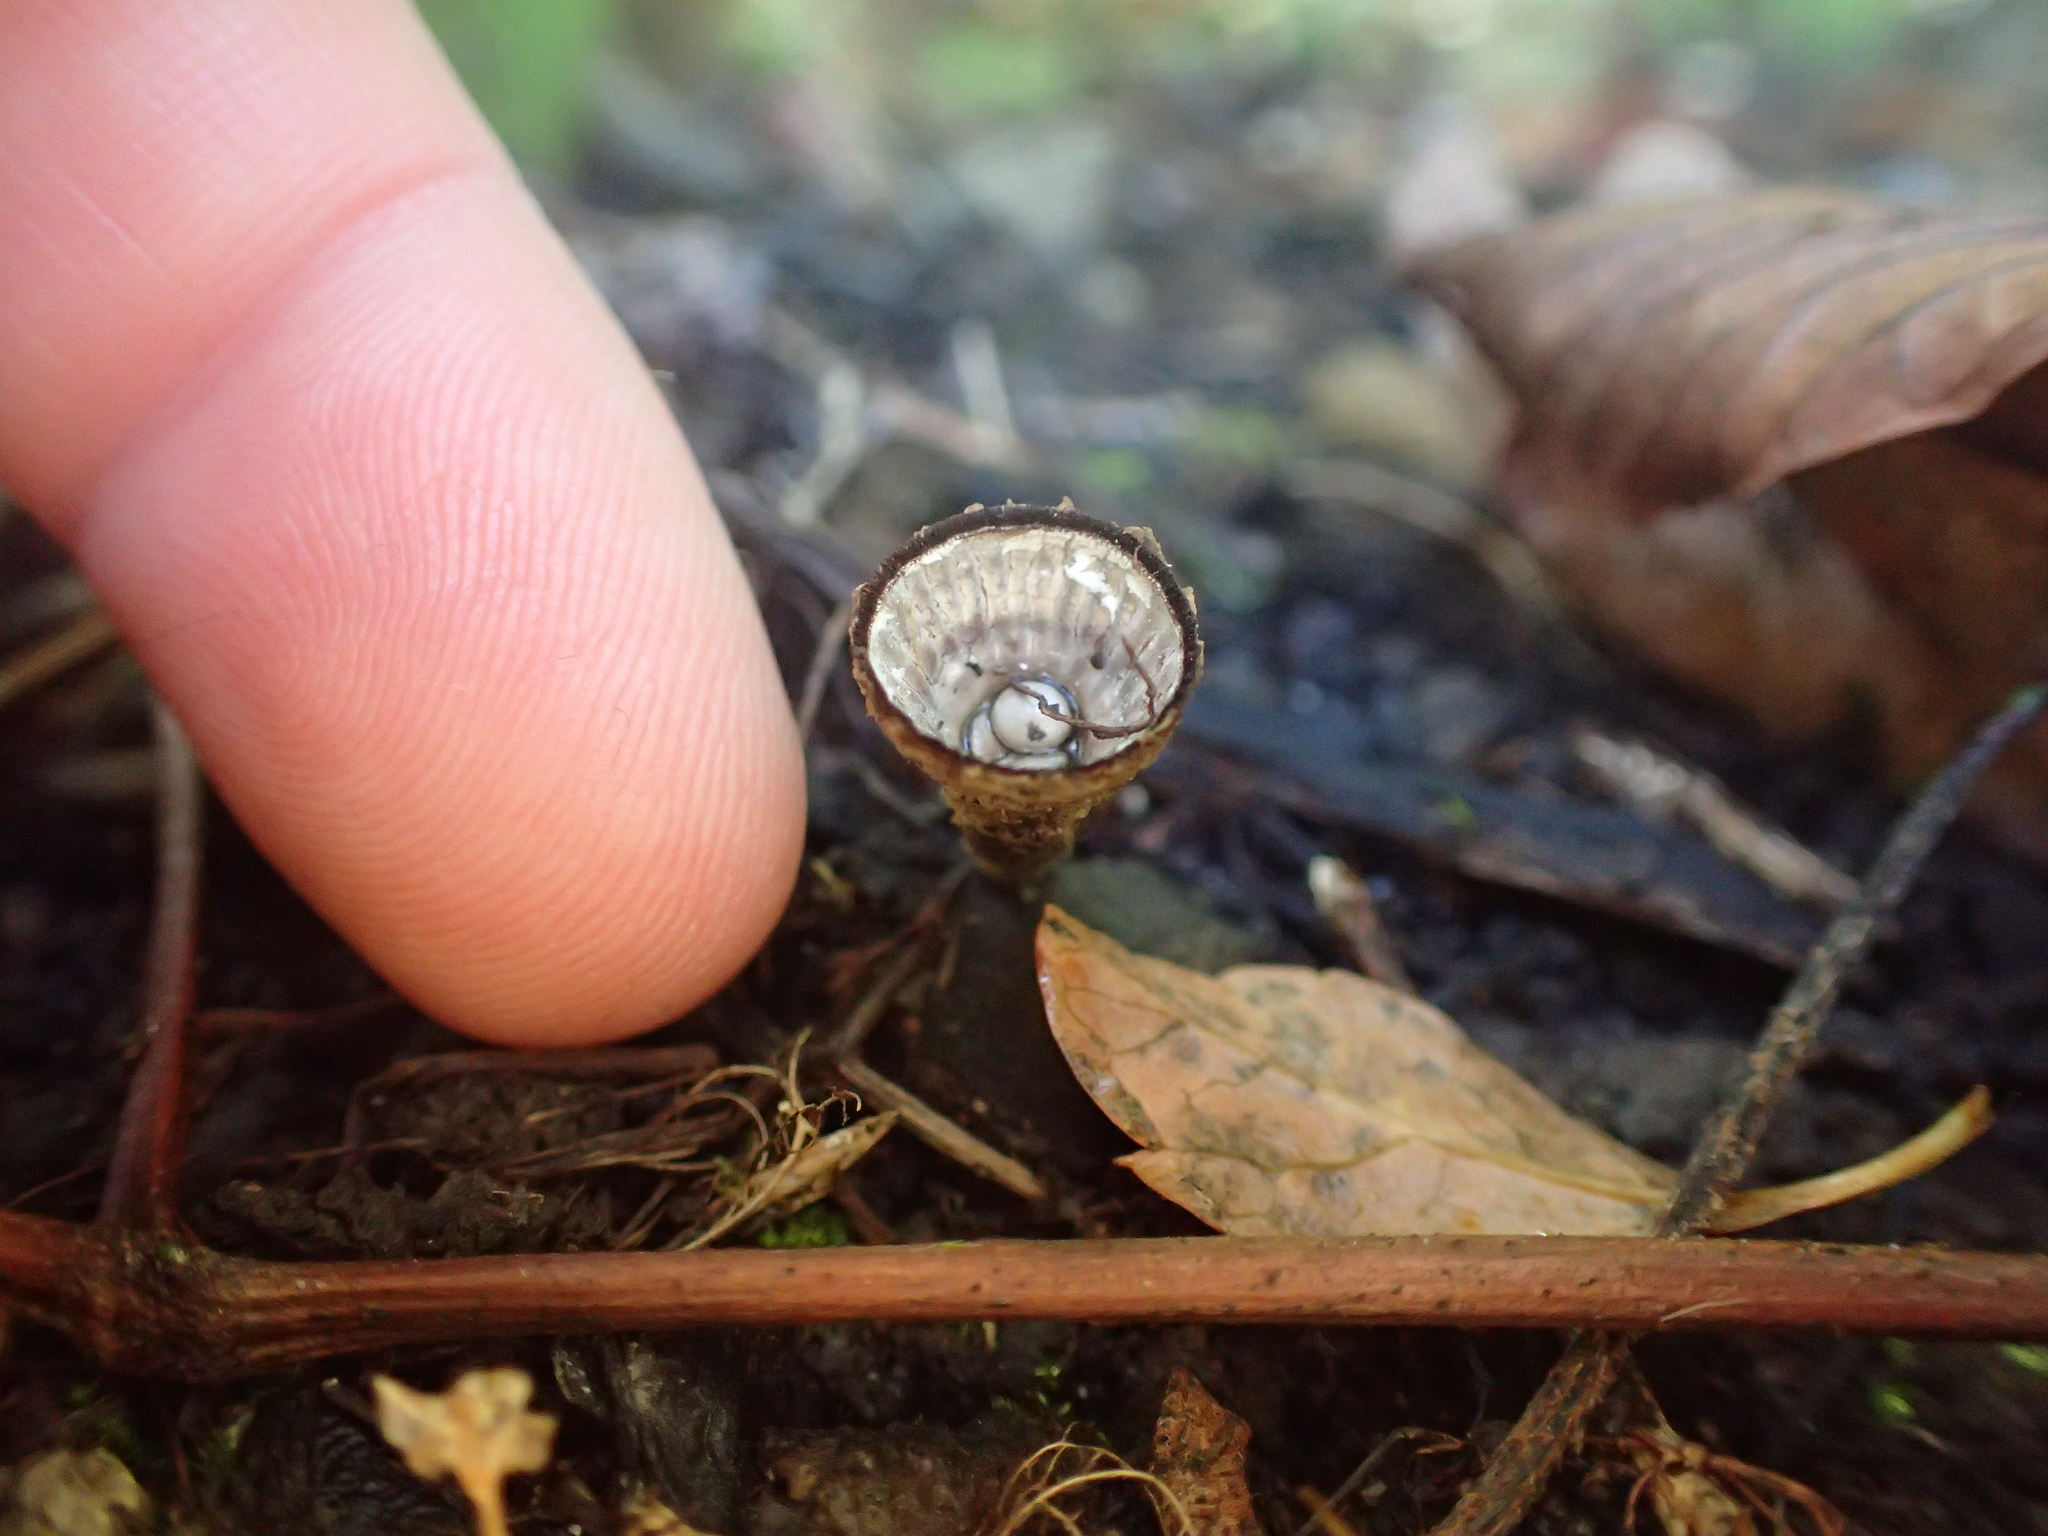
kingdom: Fungi
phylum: Basidiomycota
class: Agaricomycetes
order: Agaricales
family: Agaricaceae
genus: Cyathus
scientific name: Cyathus striatus
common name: Fluted bird's nest
